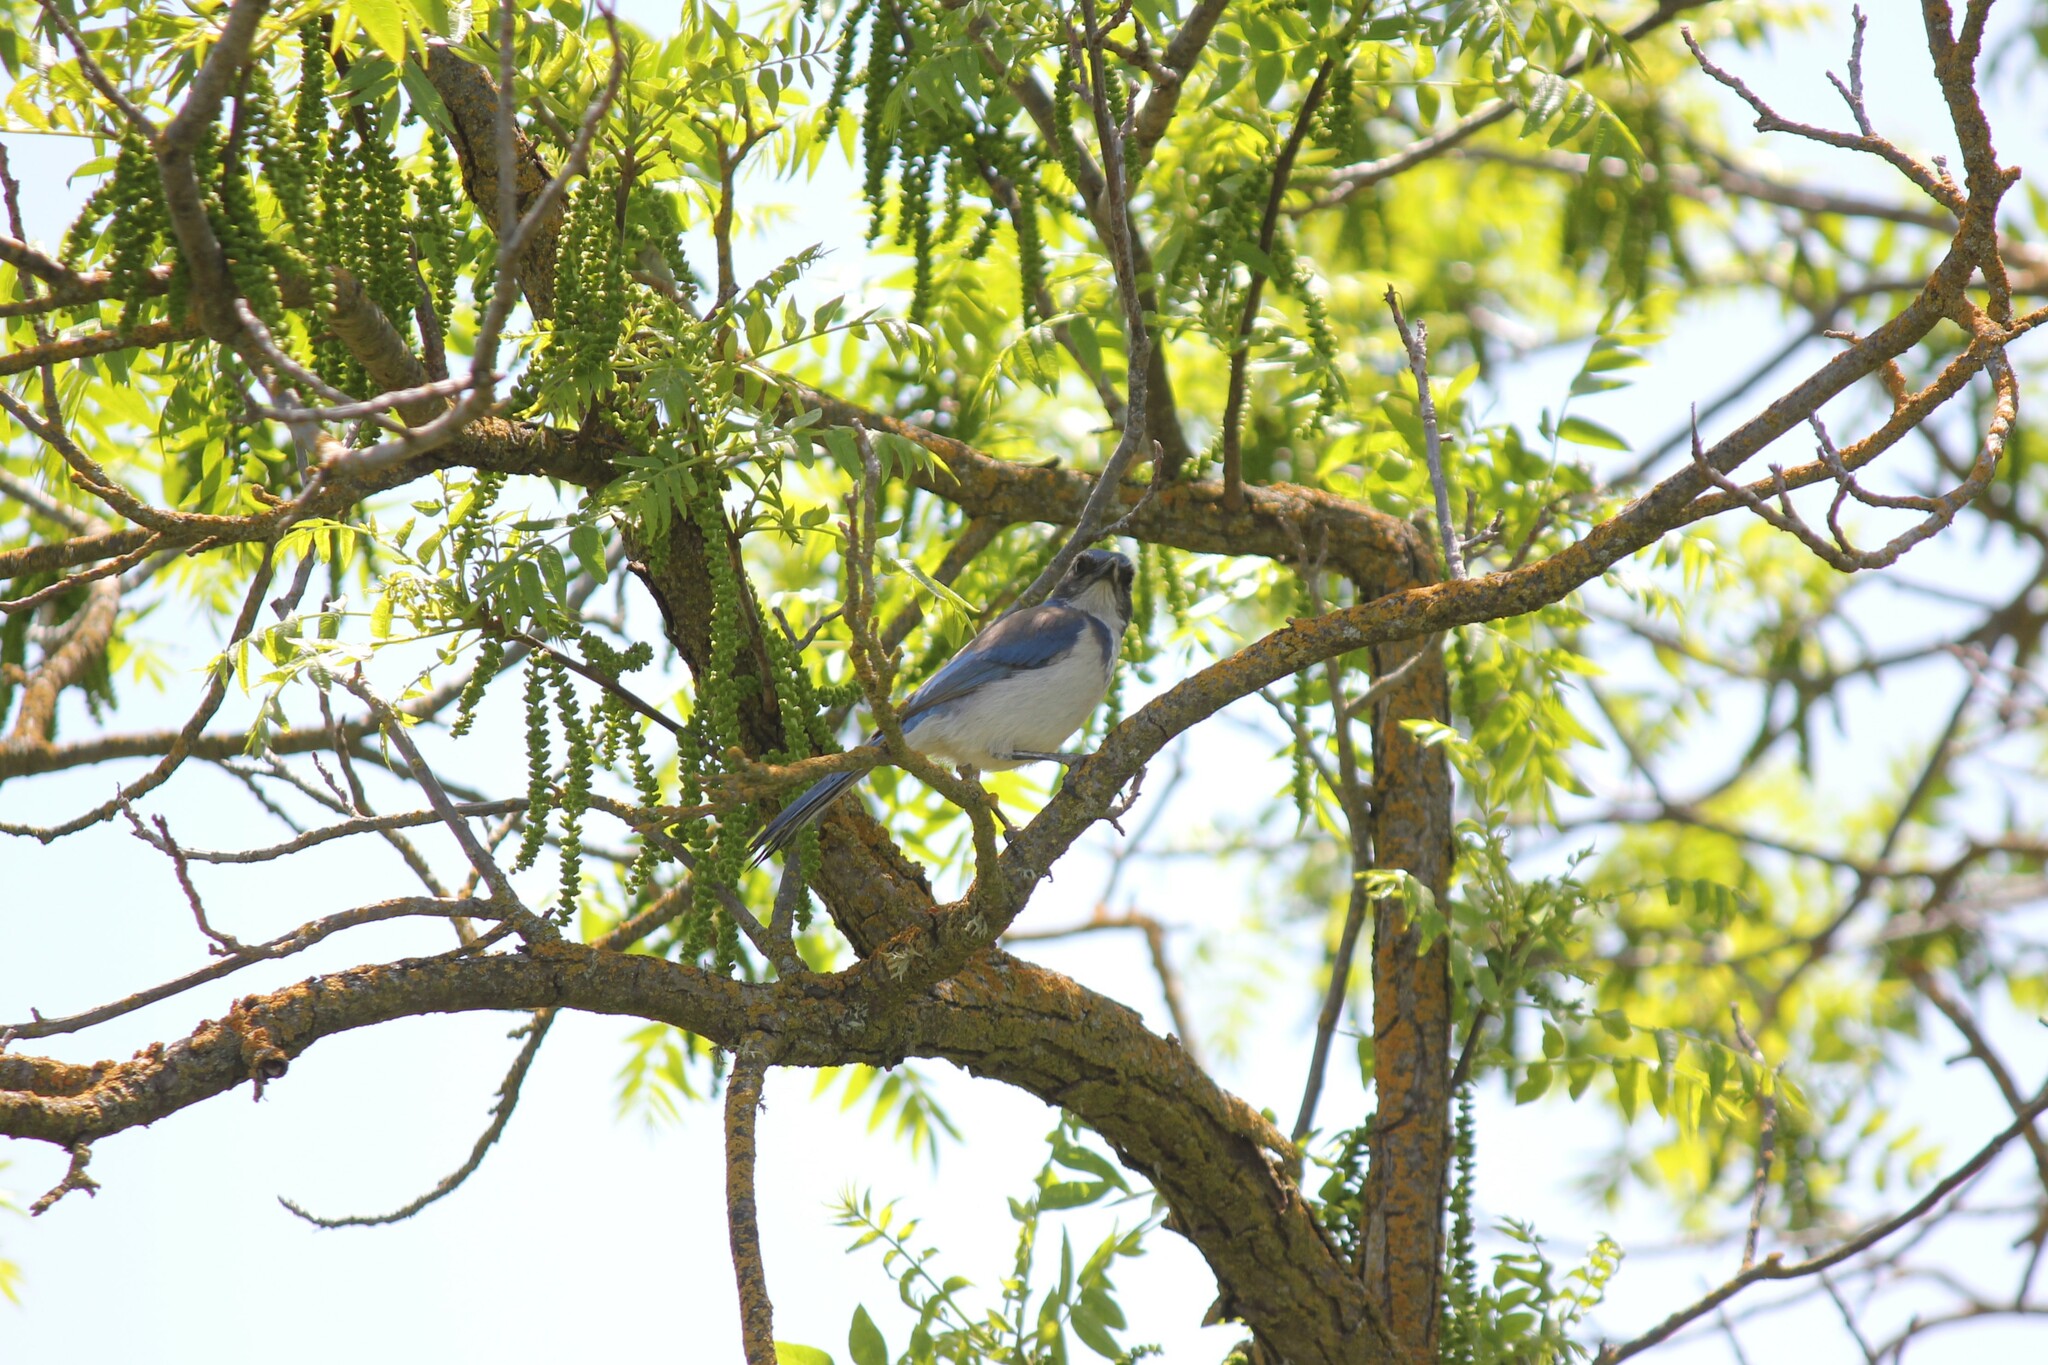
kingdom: Animalia
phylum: Chordata
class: Aves
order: Passeriformes
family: Corvidae
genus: Aphelocoma
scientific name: Aphelocoma californica
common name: California scrub-jay
